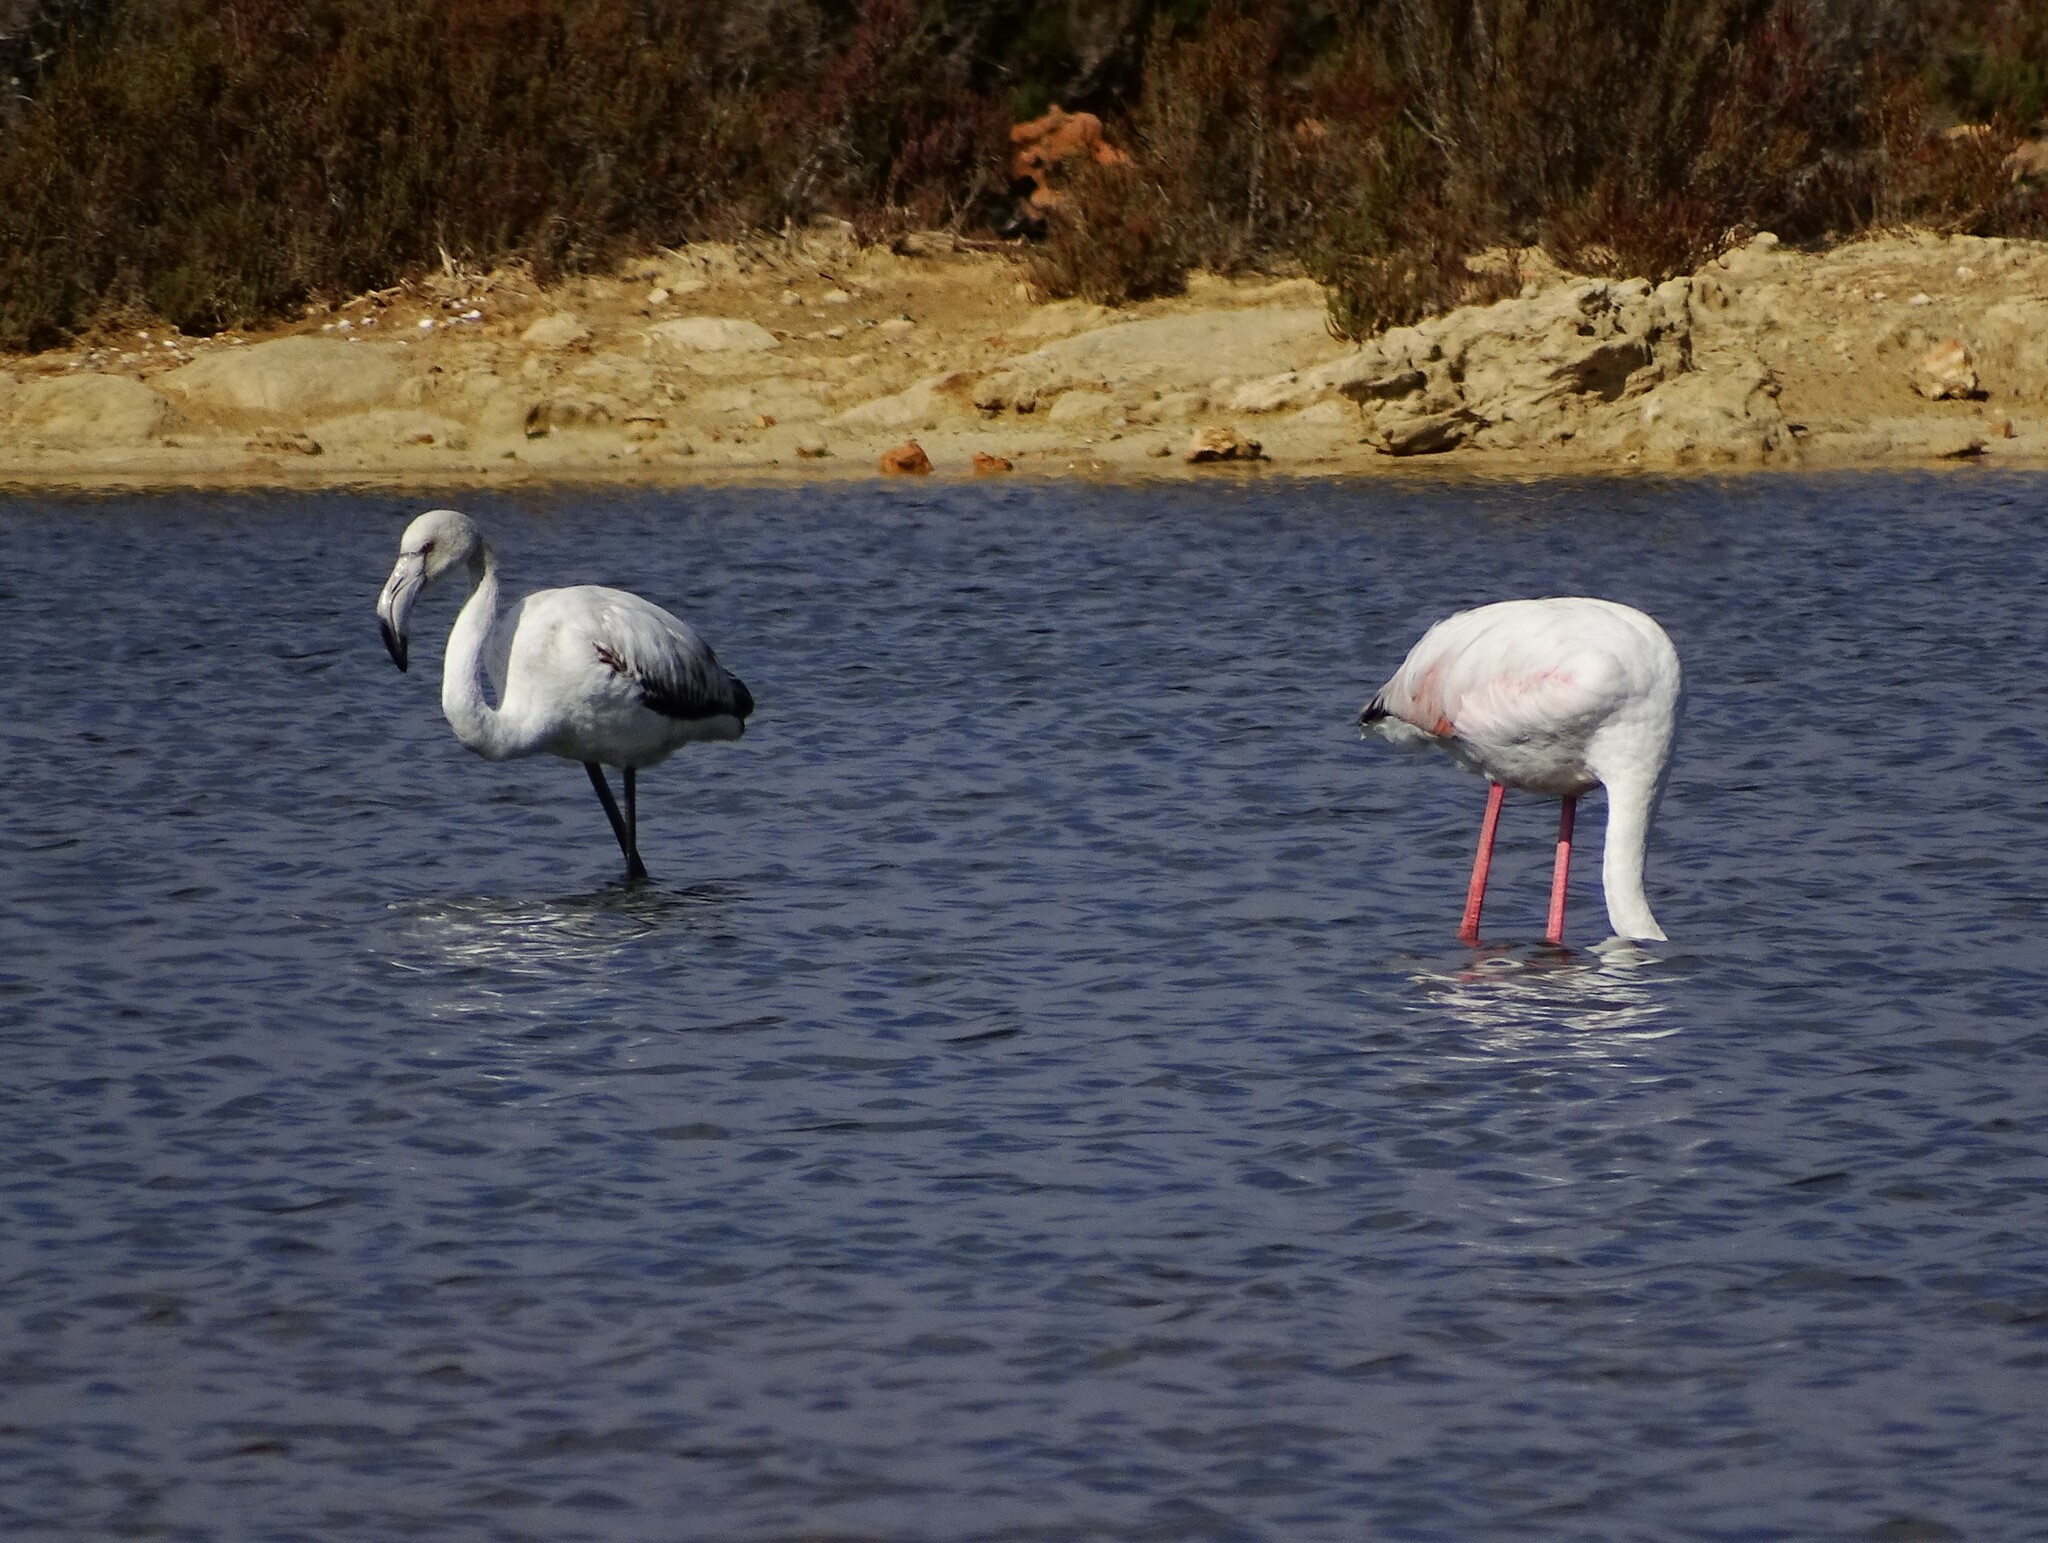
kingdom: Animalia
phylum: Chordata
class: Aves
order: Phoenicopteriformes
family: Phoenicopteridae
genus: Phoenicopterus
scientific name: Phoenicopterus roseus
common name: Greater flamingo
